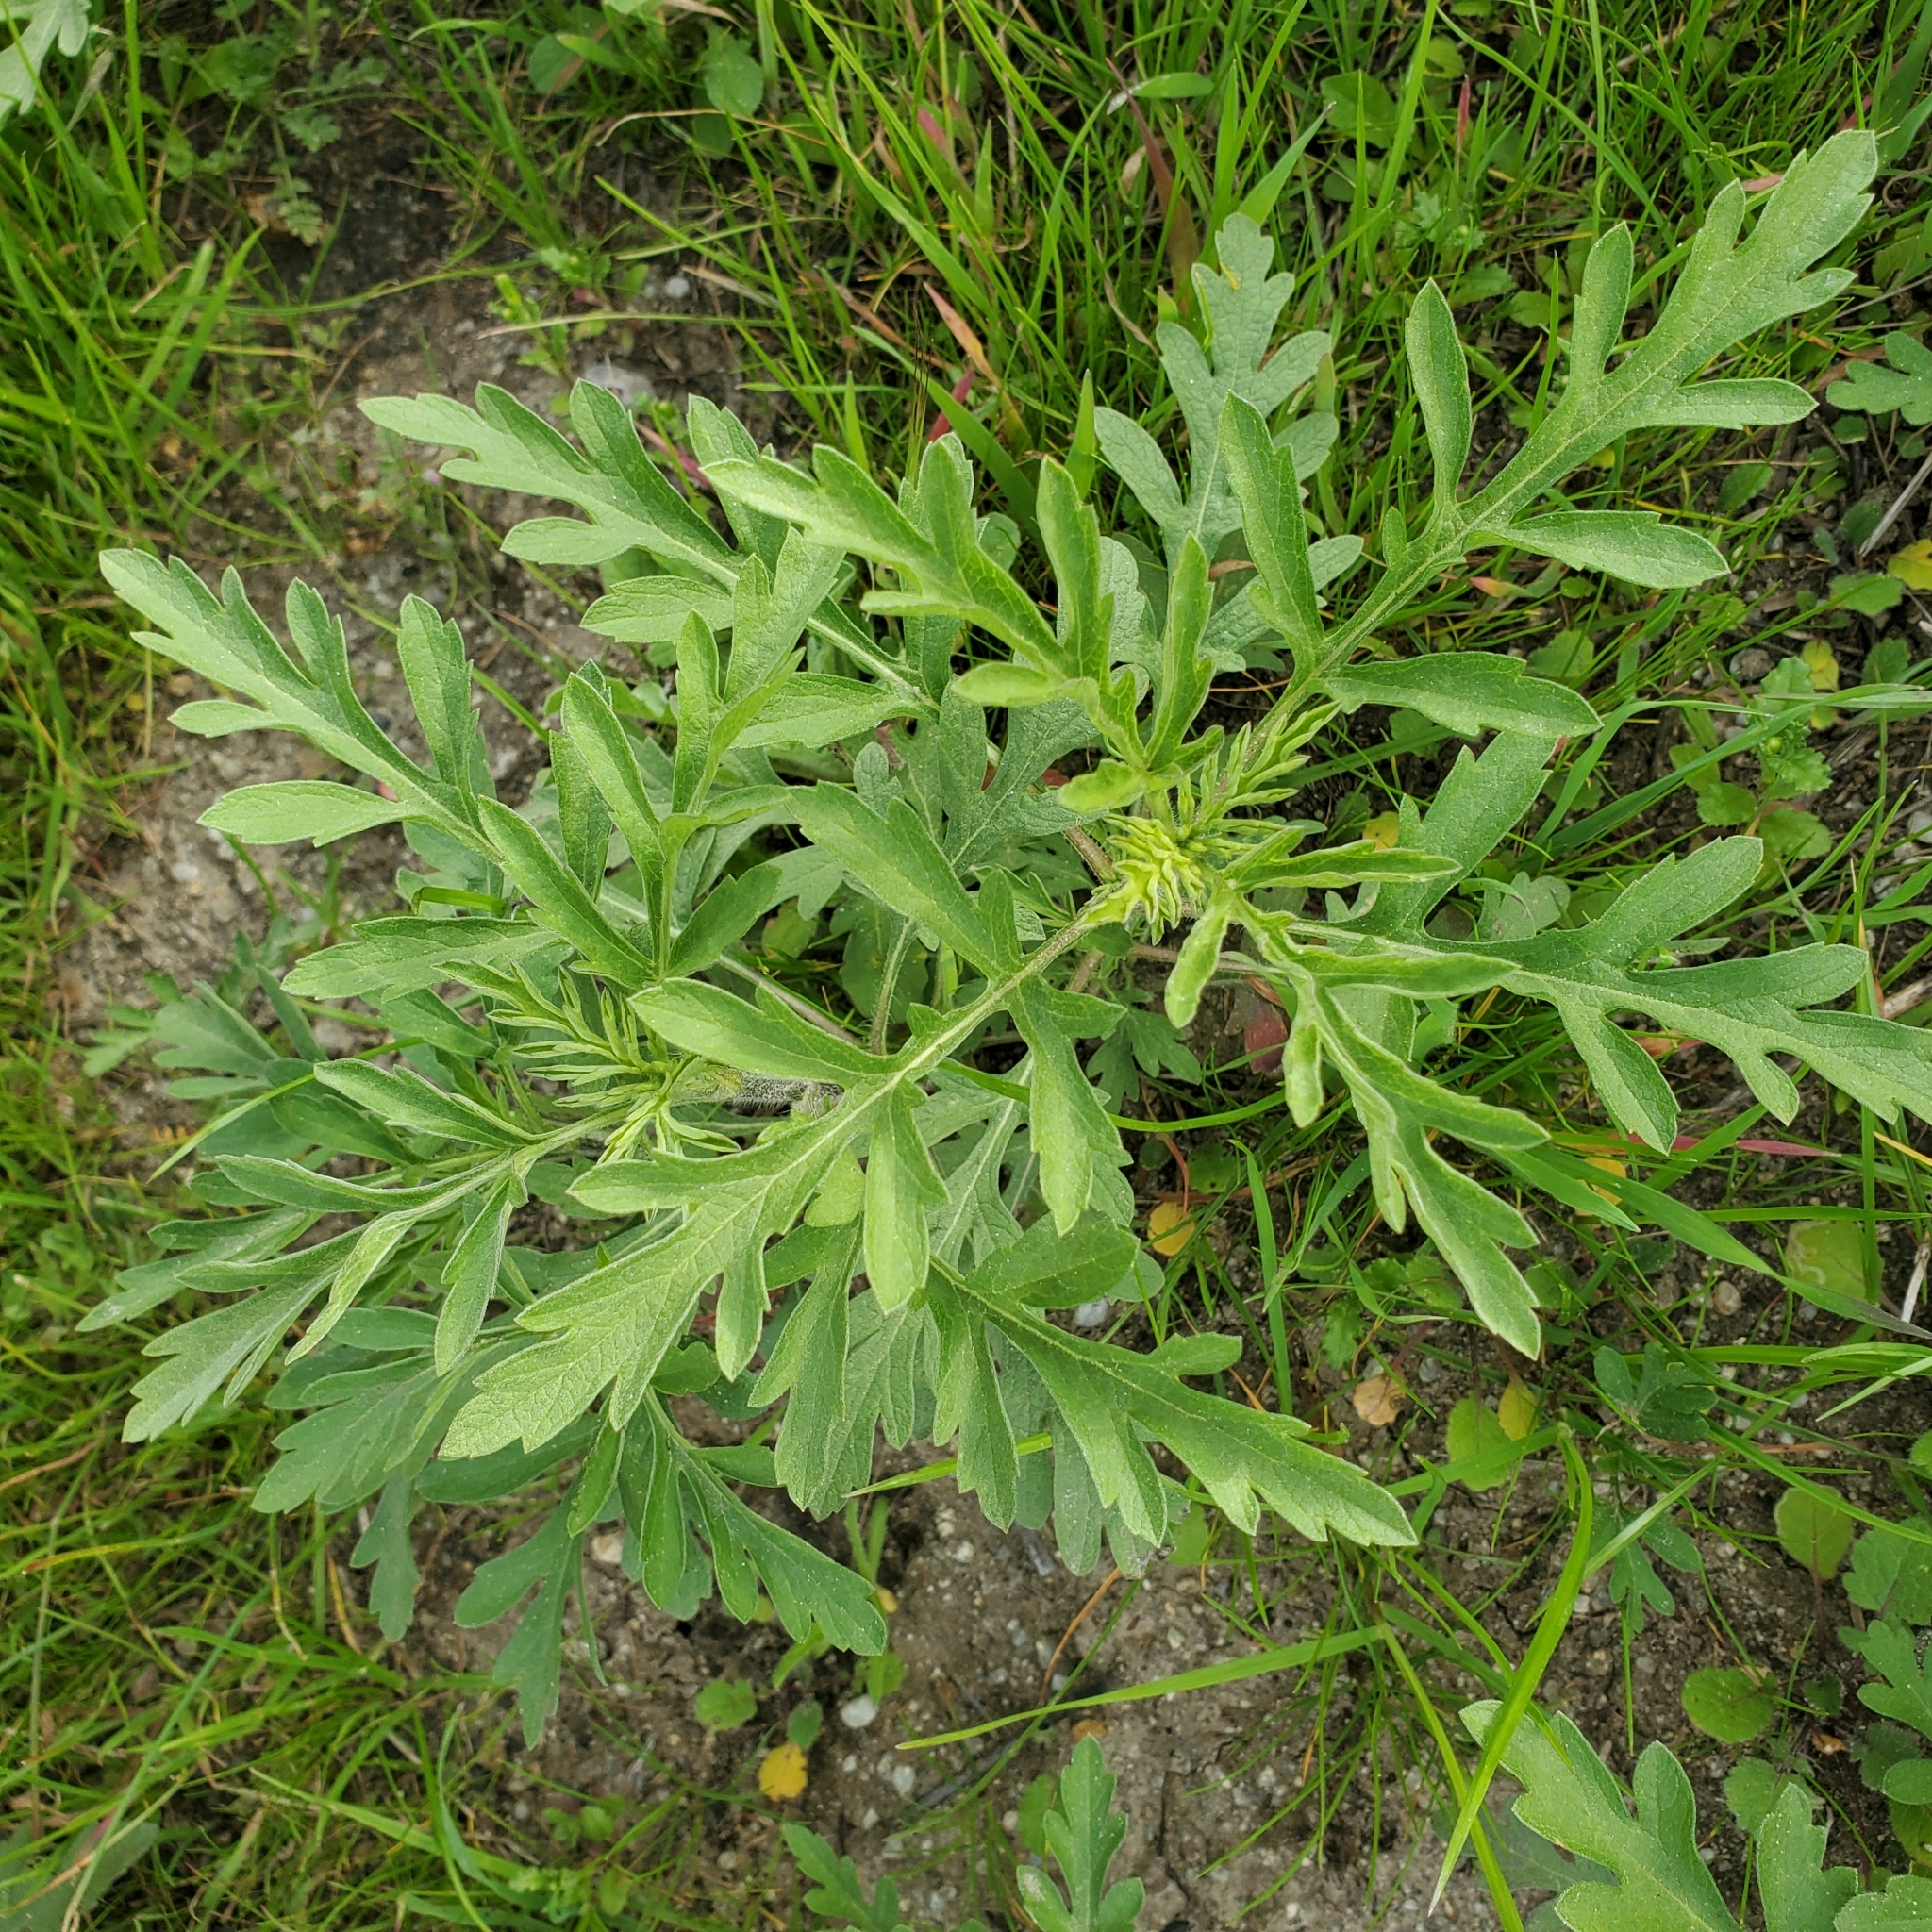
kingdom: Plantae
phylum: Tracheophyta
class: Magnoliopsida
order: Asterales
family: Asteraceae
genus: Ambrosia
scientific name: Ambrosia psilostachya
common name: Perennial ragweed
